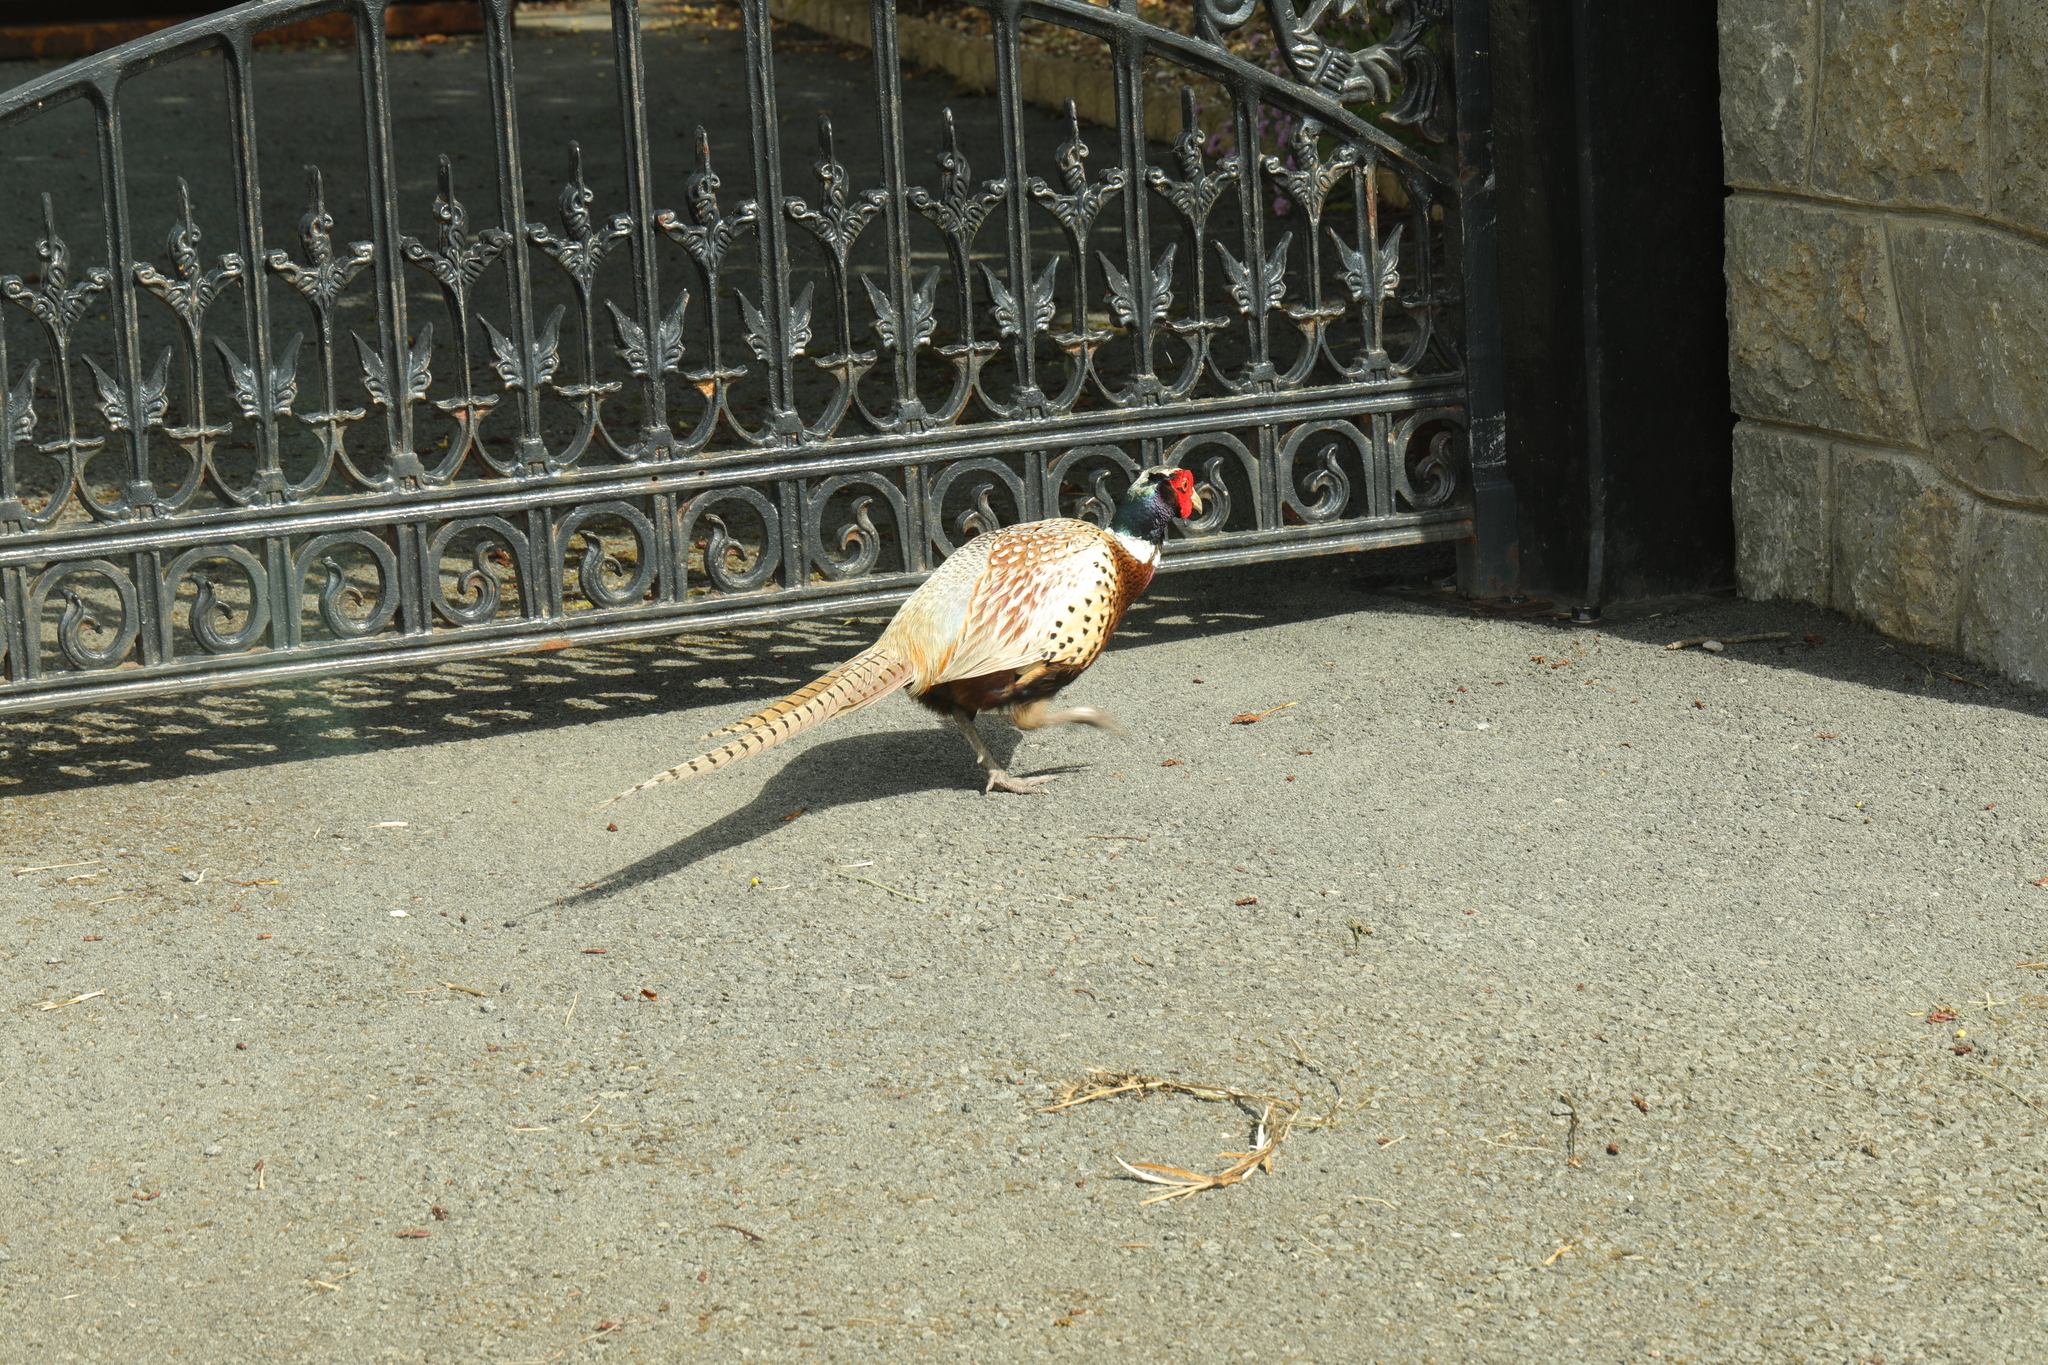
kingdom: Animalia
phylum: Chordata
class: Aves
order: Galliformes
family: Phasianidae
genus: Phasianus
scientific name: Phasianus colchicus
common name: Common pheasant
